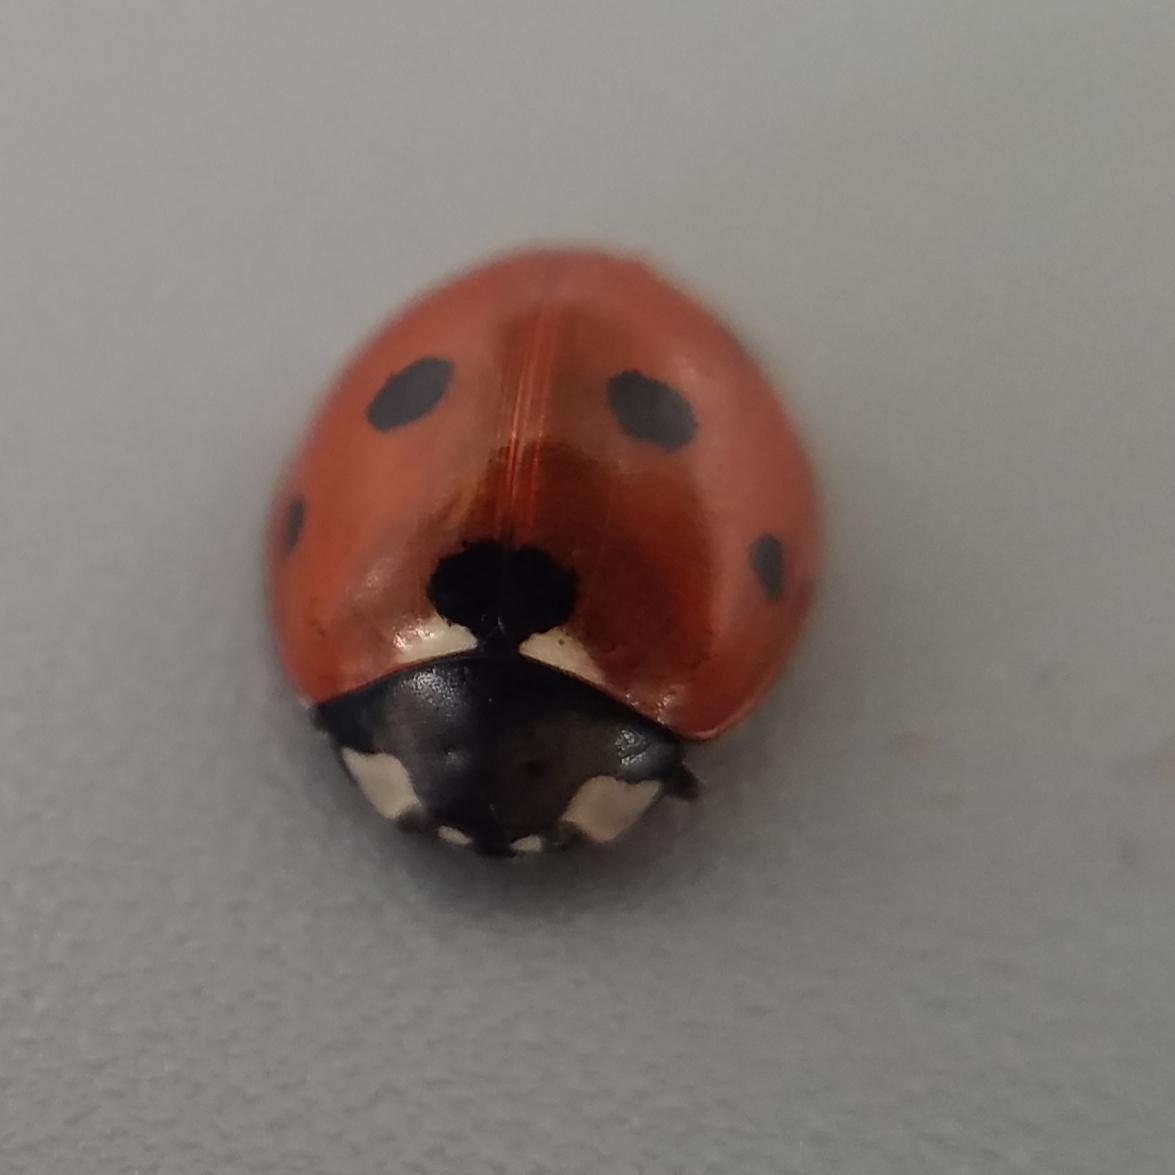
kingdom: Animalia
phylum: Arthropoda
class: Insecta
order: Coleoptera
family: Coccinellidae
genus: Coccinella
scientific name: Coccinella septempunctata
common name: Sevenspotted lady beetle
